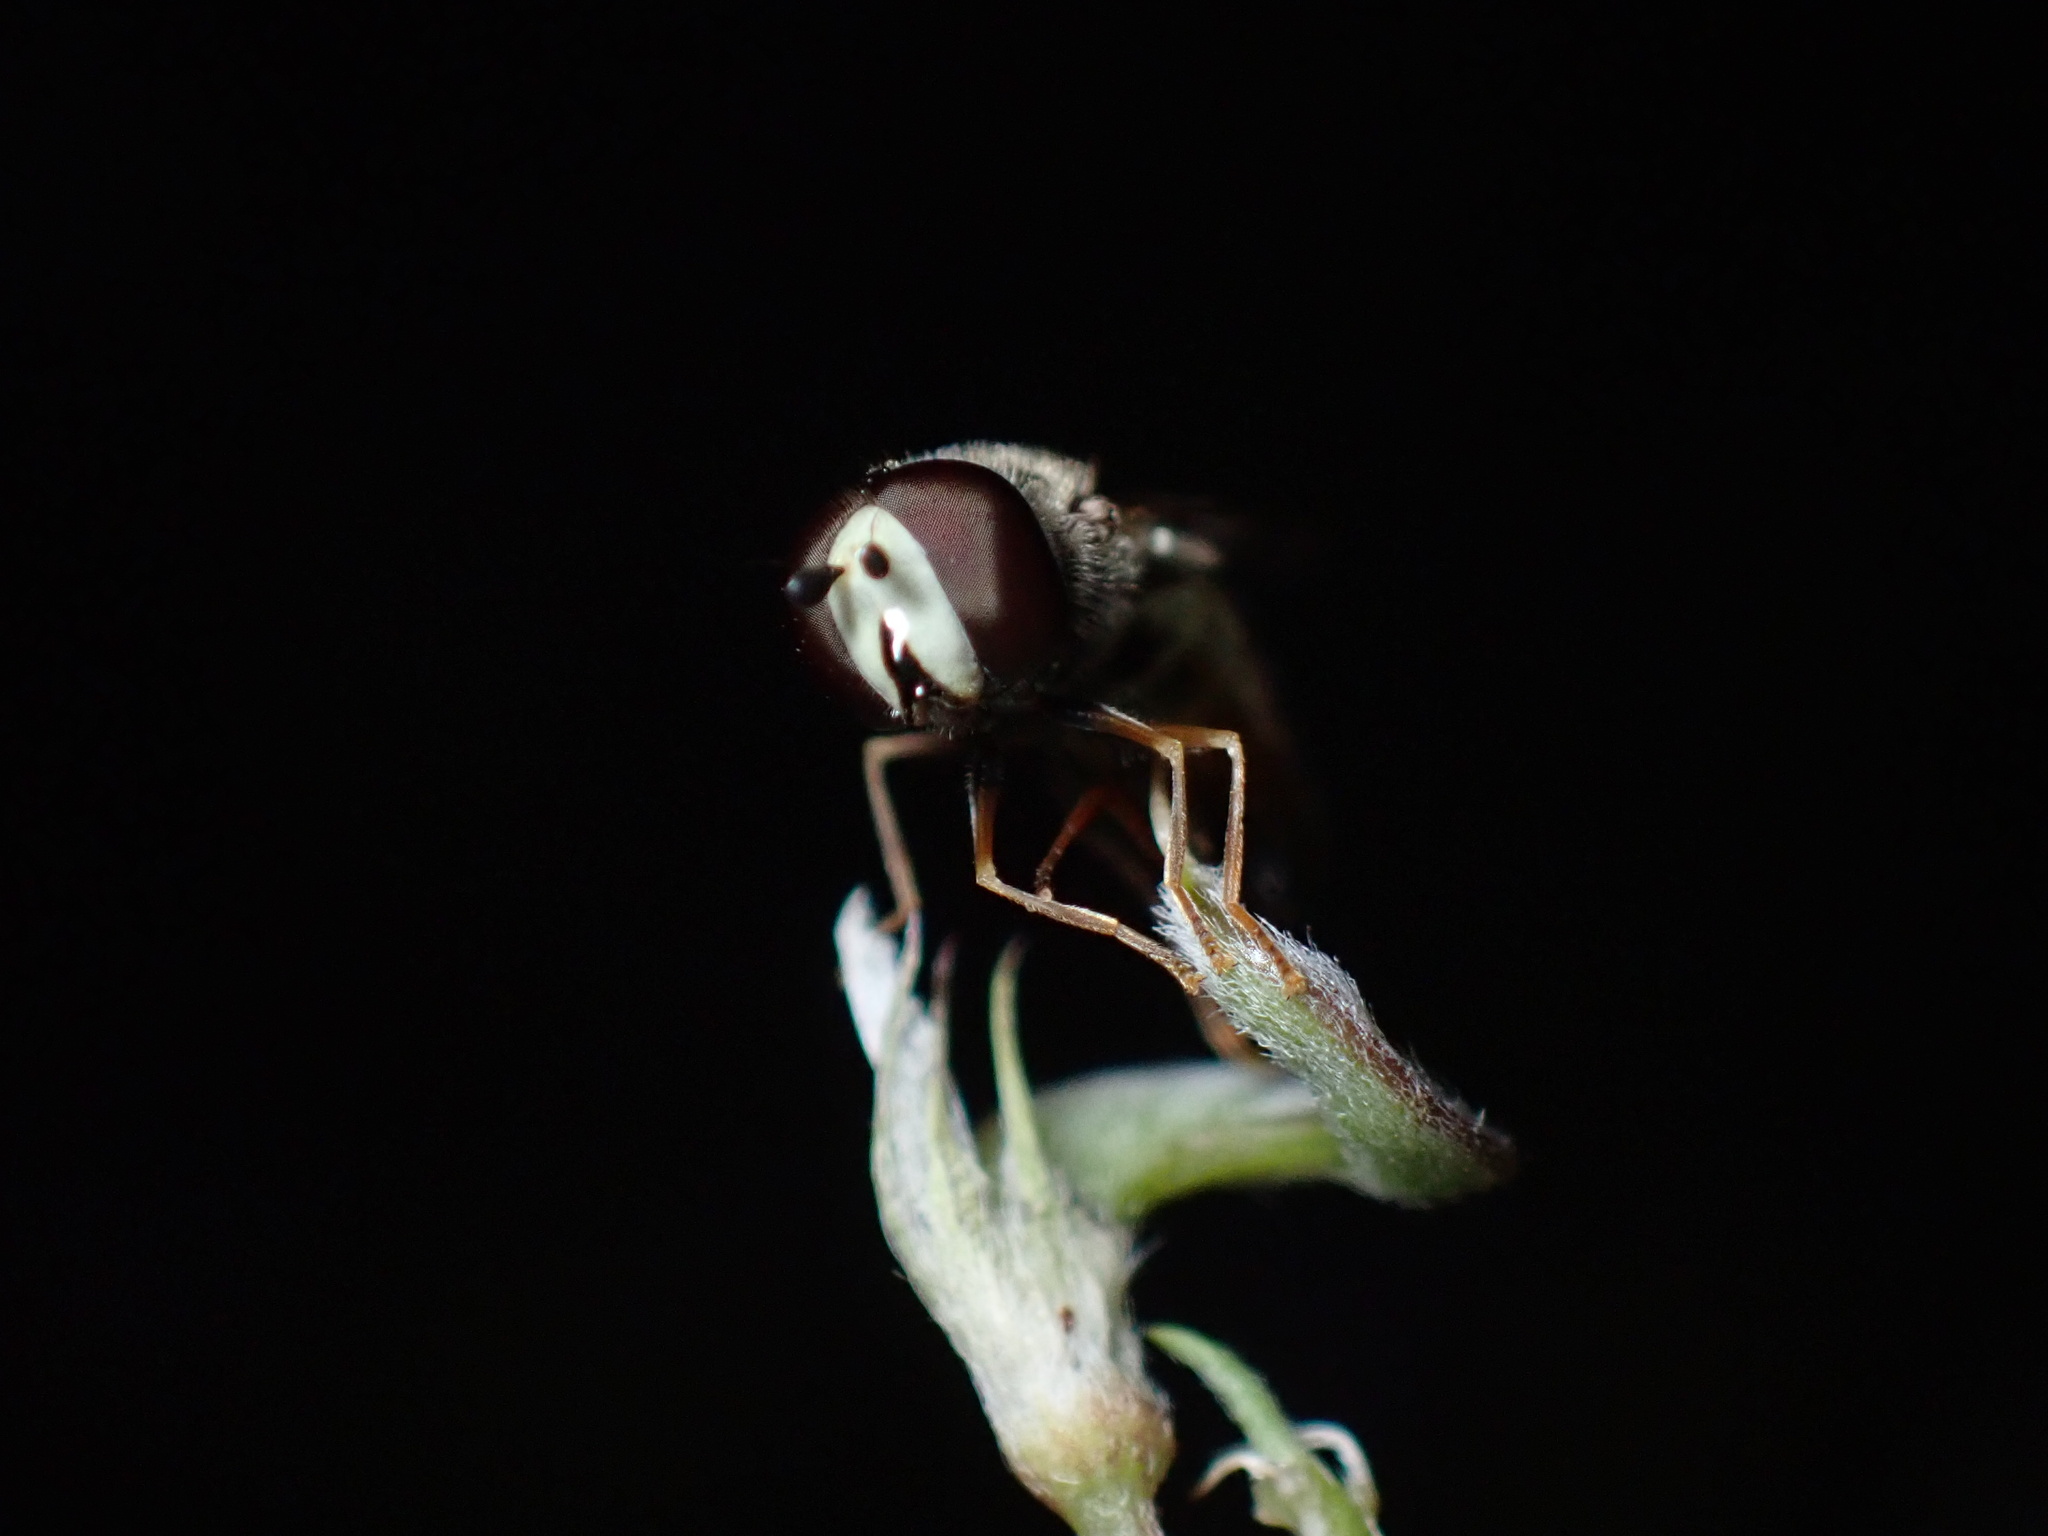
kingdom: Animalia
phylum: Arthropoda
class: Insecta
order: Diptera
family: Syrphidae
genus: Eupeodes
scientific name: Eupeodes volucris
